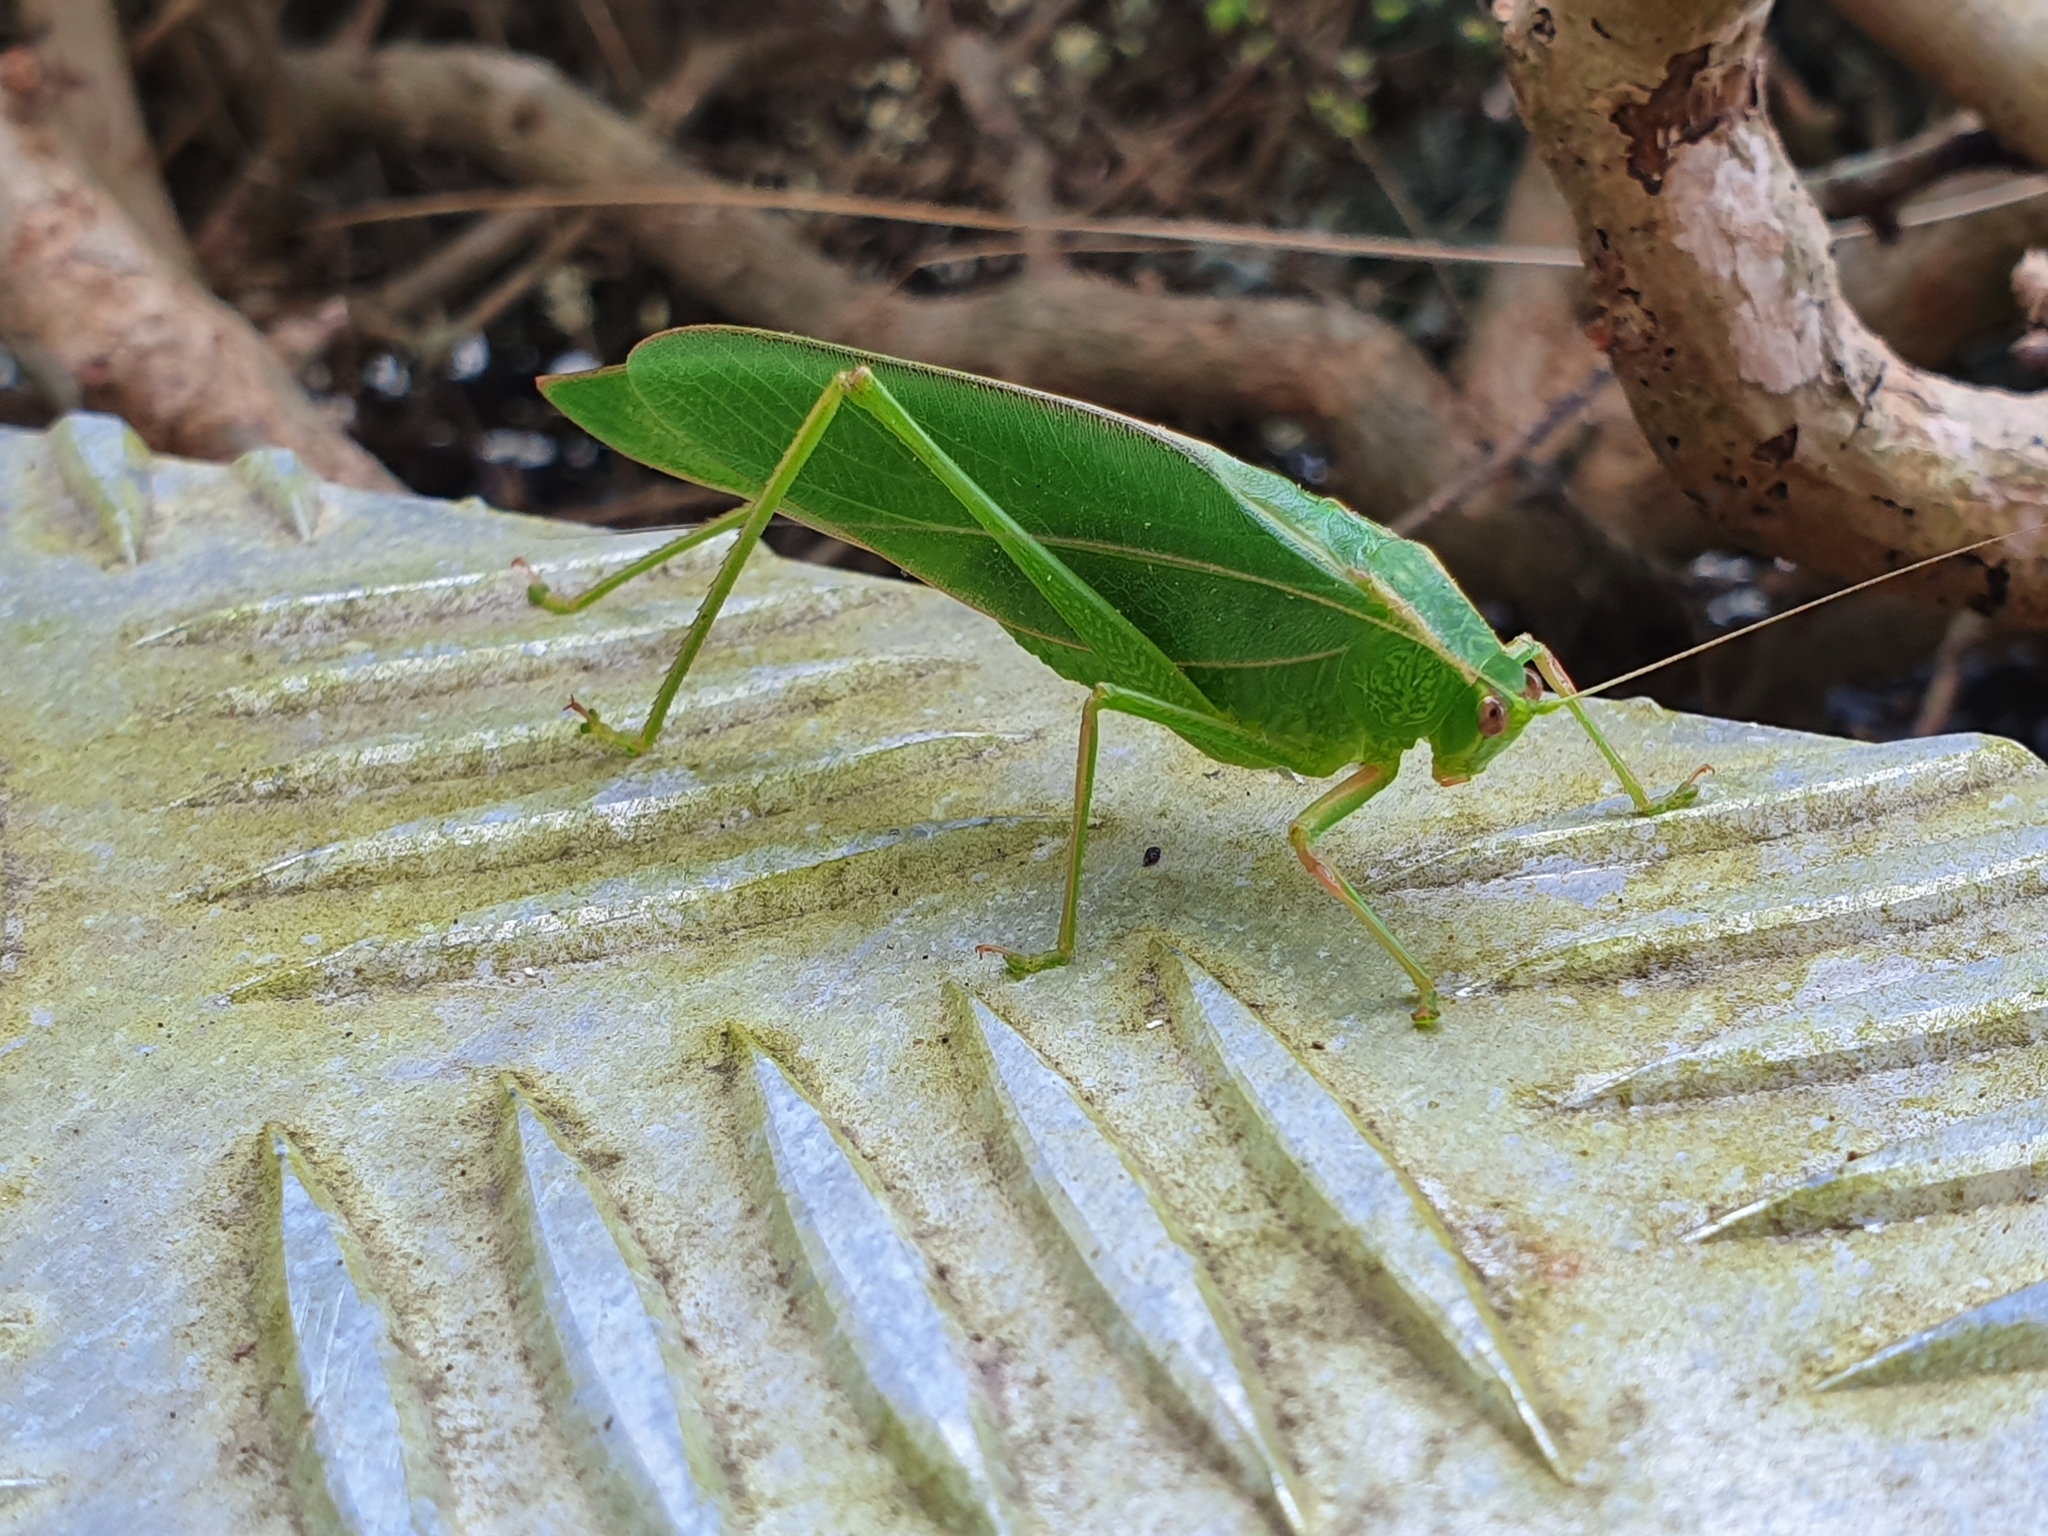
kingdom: Animalia
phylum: Arthropoda
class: Insecta
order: Orthoptera
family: Tettigoniidae
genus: Caedicia
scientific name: Caedicia simplex
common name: Common garden katydid
